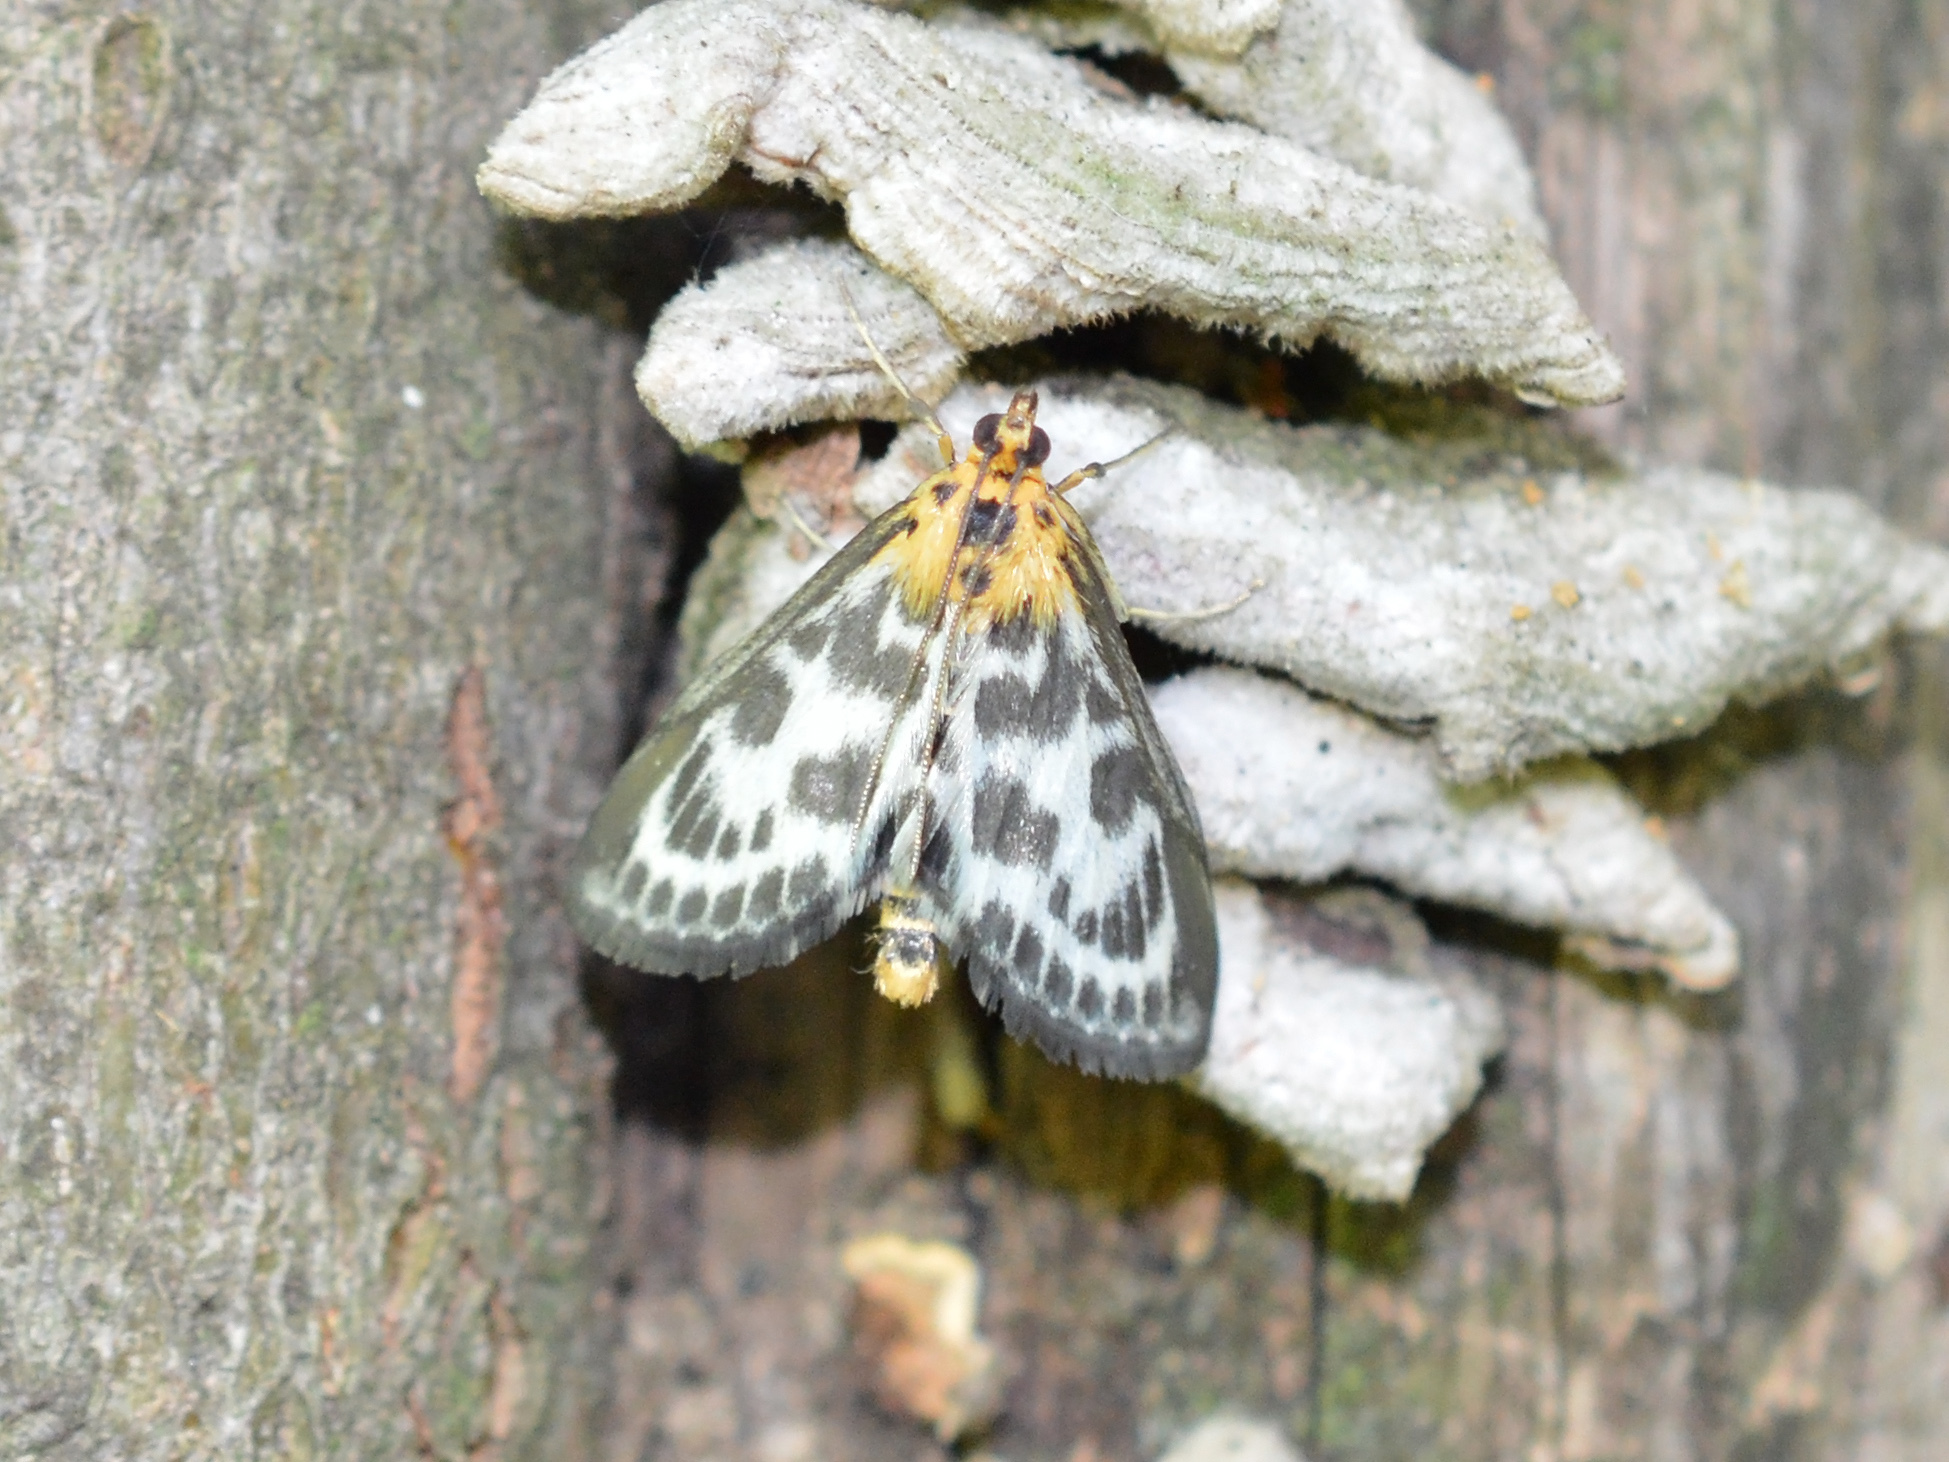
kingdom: Animalia
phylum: Arthropoda
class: Insecta
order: Lepidoptera
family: Crambidae
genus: Anania
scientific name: Anania hortulata
